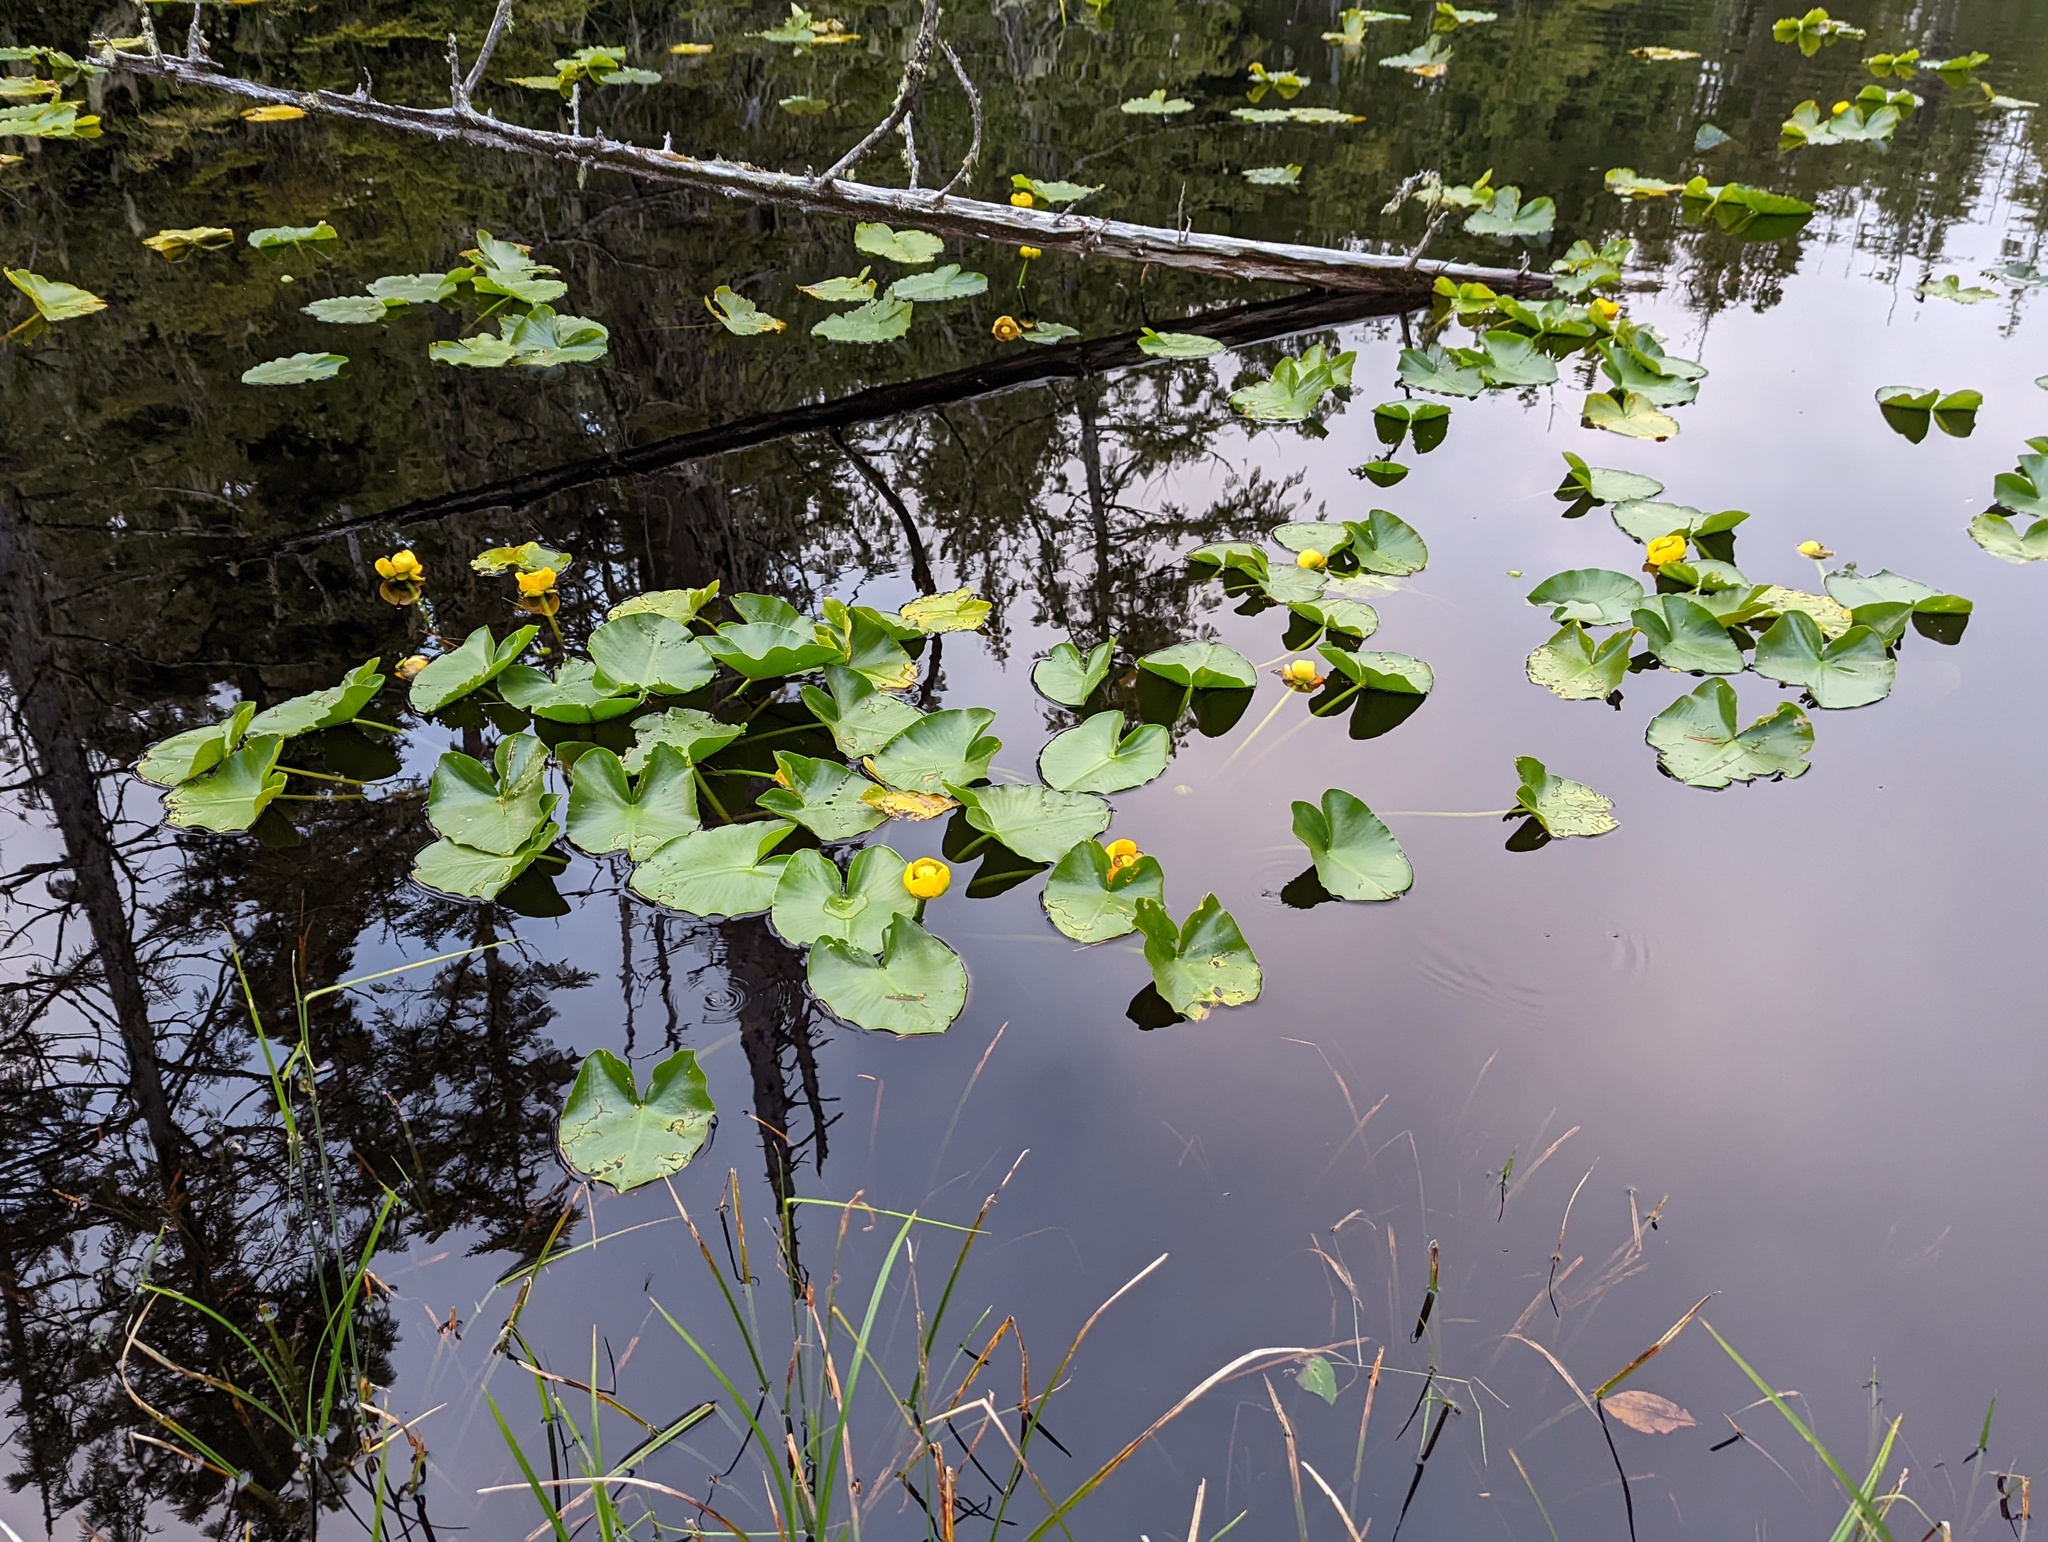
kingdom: Plantae
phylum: Tracheophyta
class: Magnoliopsida
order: Nymphaeales
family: Nymphaeaceae
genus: Nuphar
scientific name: Nuphar polysepala
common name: Rocky mountain cow-lily
